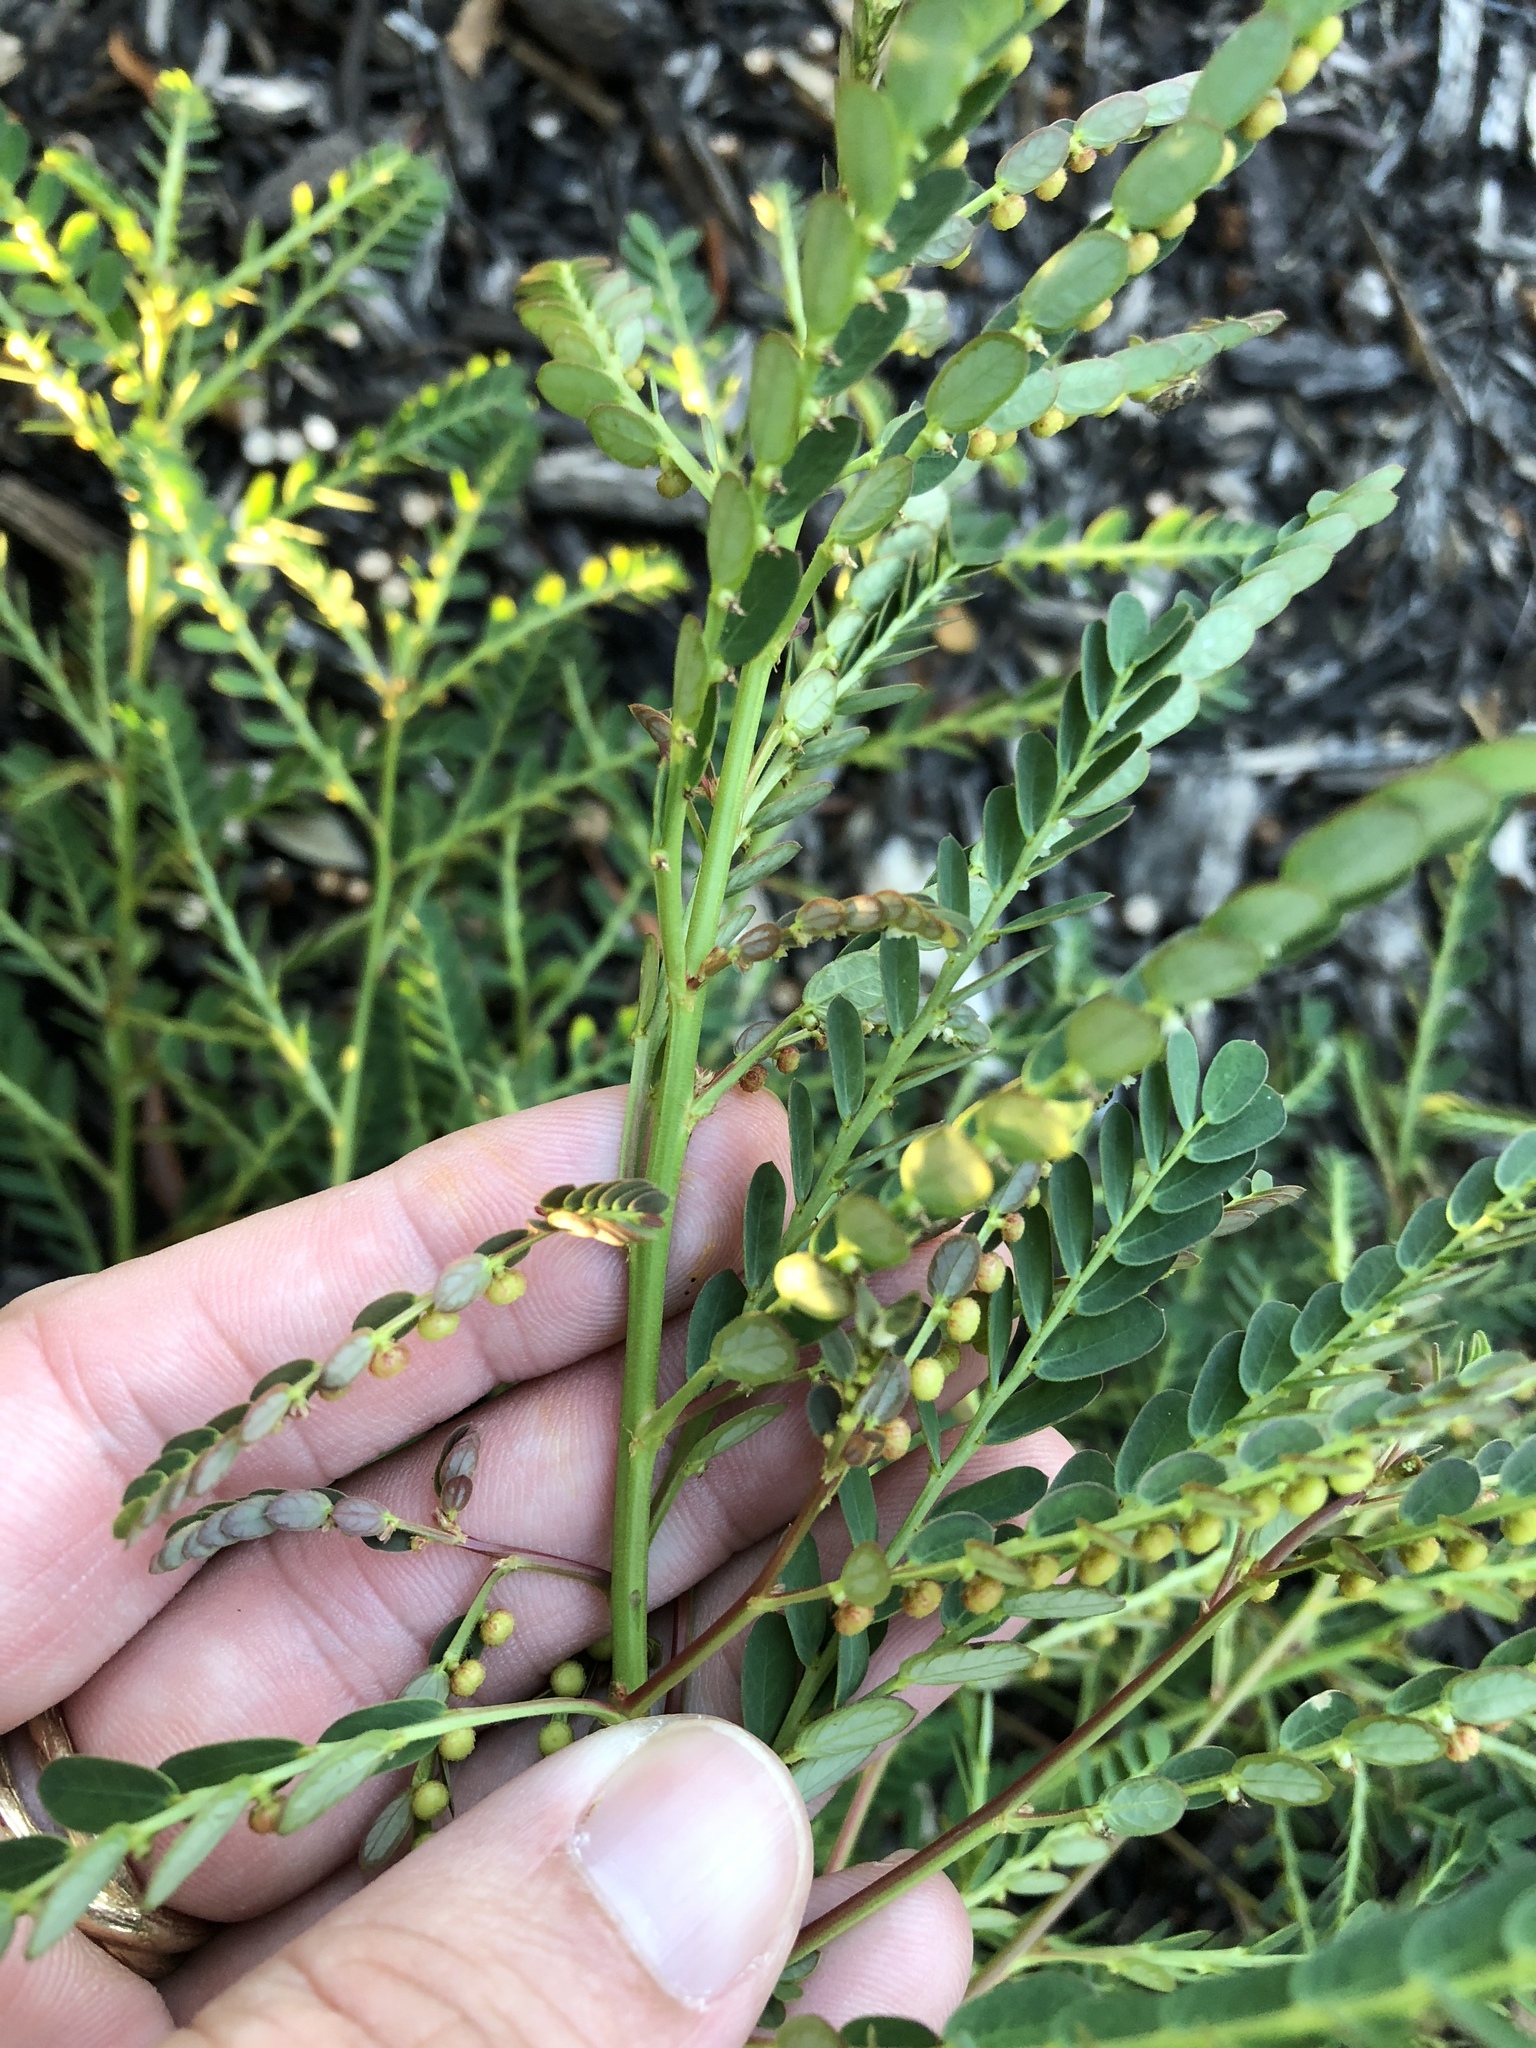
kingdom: Plantae
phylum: Tracheophyta
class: Magnoliopsida
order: Malpighiales
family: Phyllanthaceae
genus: Phyllanthus
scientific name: Phyllanthus urinaria
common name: Chamber bitter
